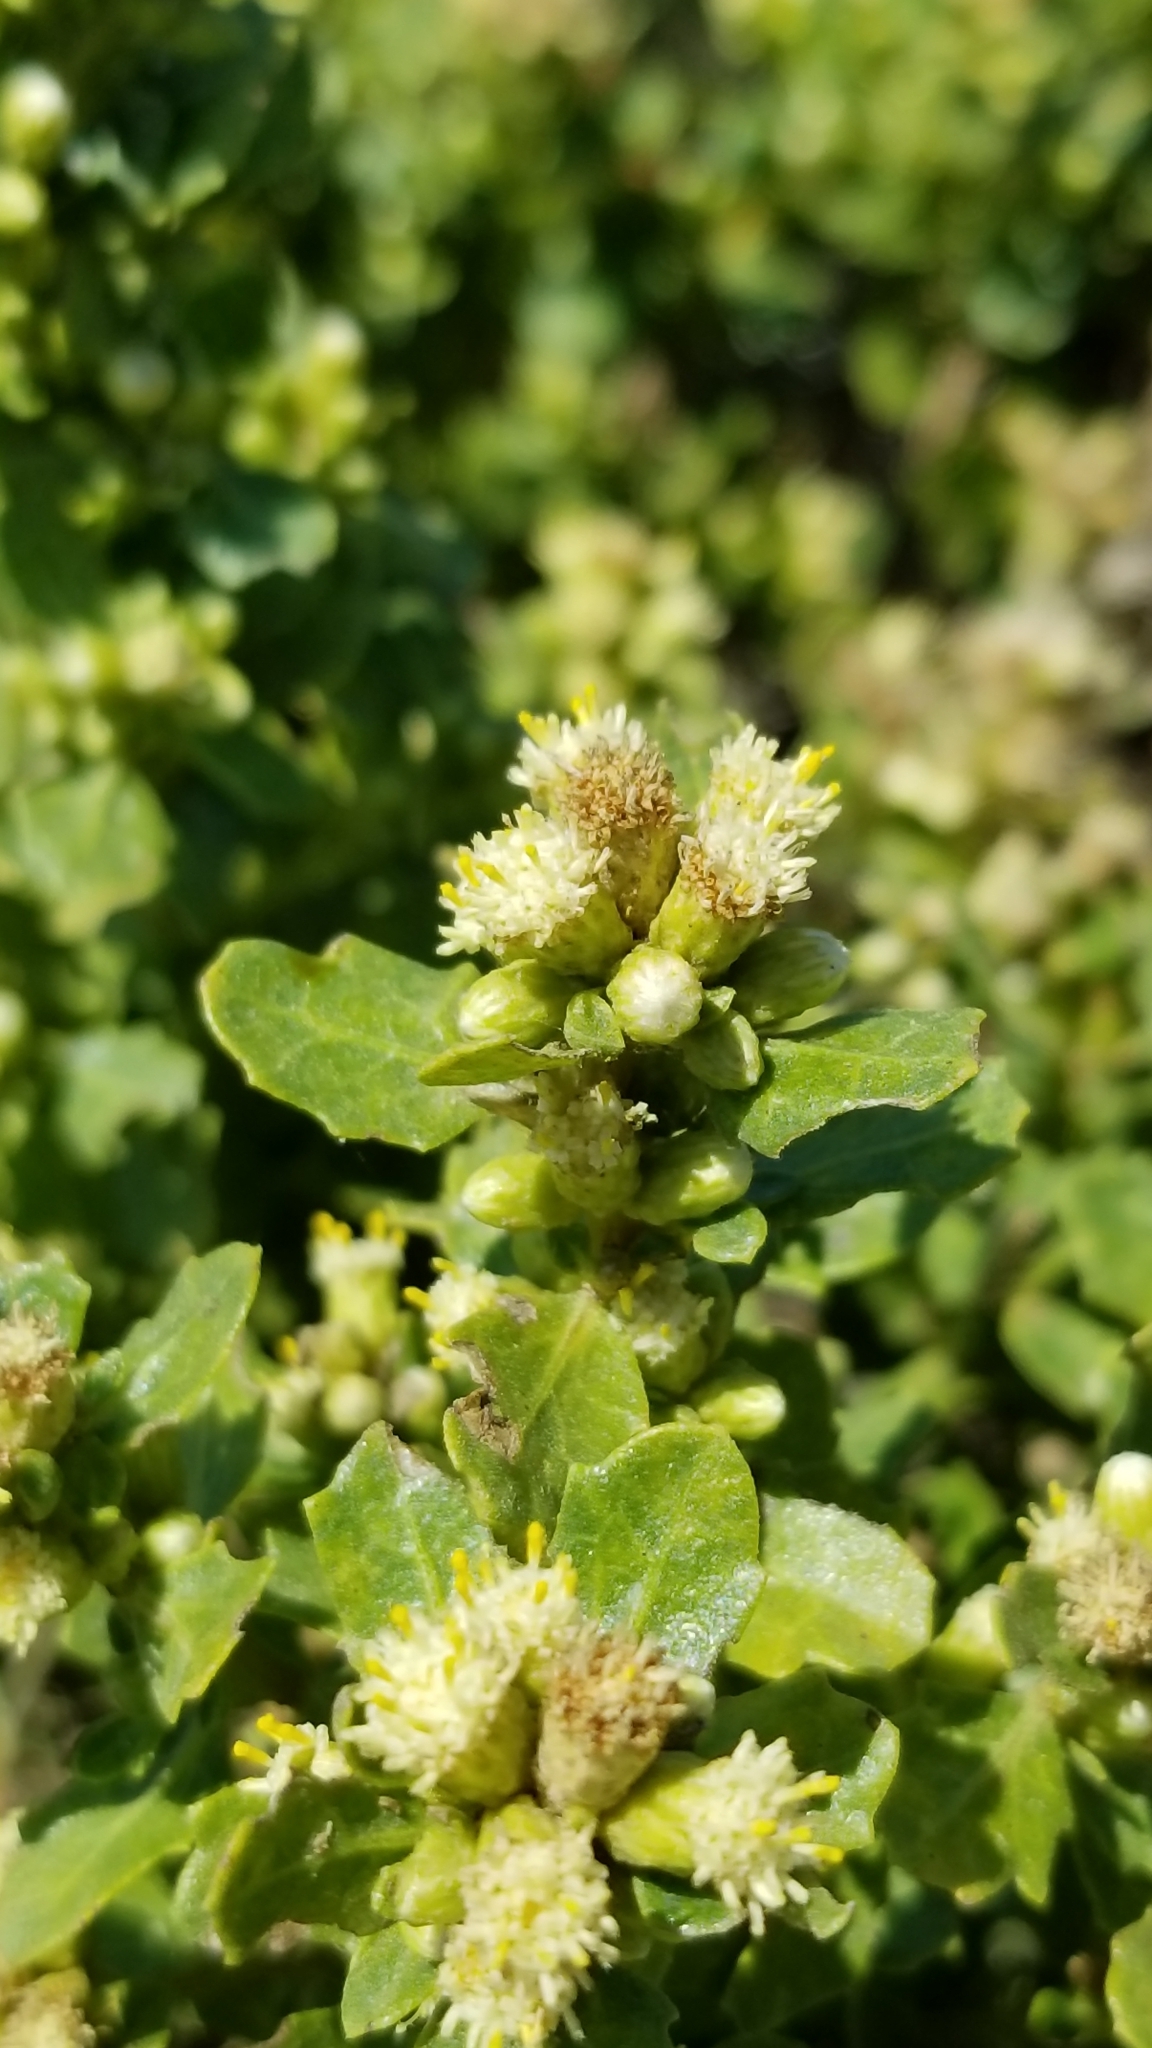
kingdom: Plantae
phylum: Tracheophyta
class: Magnoliopsida
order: Asterales
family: Asteraceae
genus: Baccharis
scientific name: Baccharis pilularis
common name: Coyotebrush
